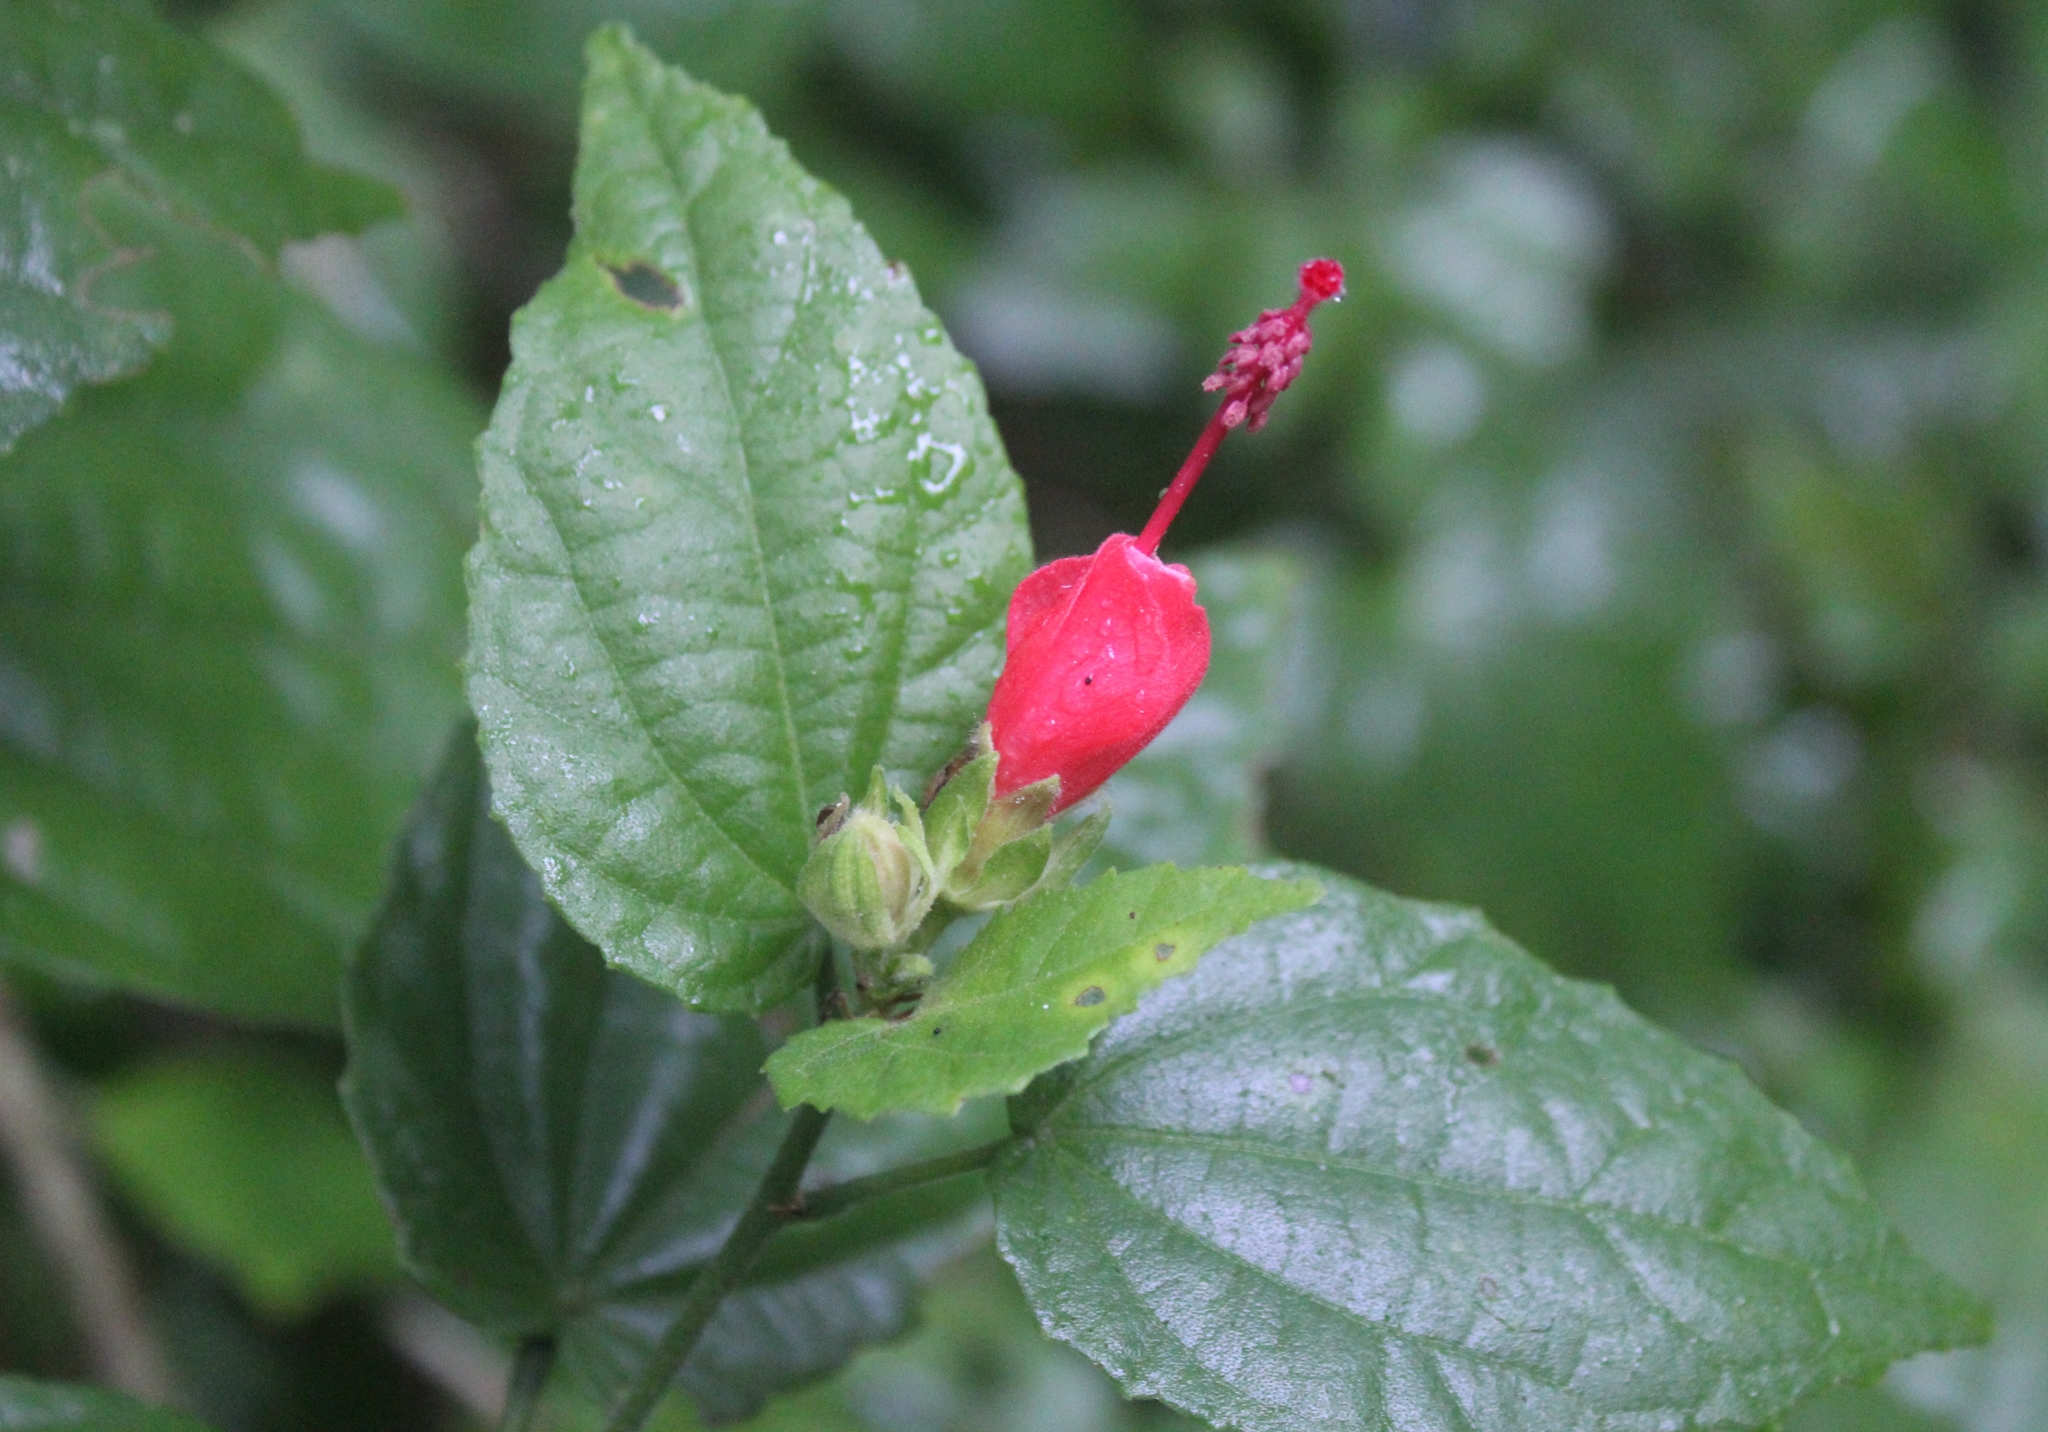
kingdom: Plantae
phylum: Tracheophyta
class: Magnoliopsida
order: Malvales
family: Malvaceae
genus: Malvaviscus
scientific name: Malvaviscus arboreus
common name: Wax mallow
